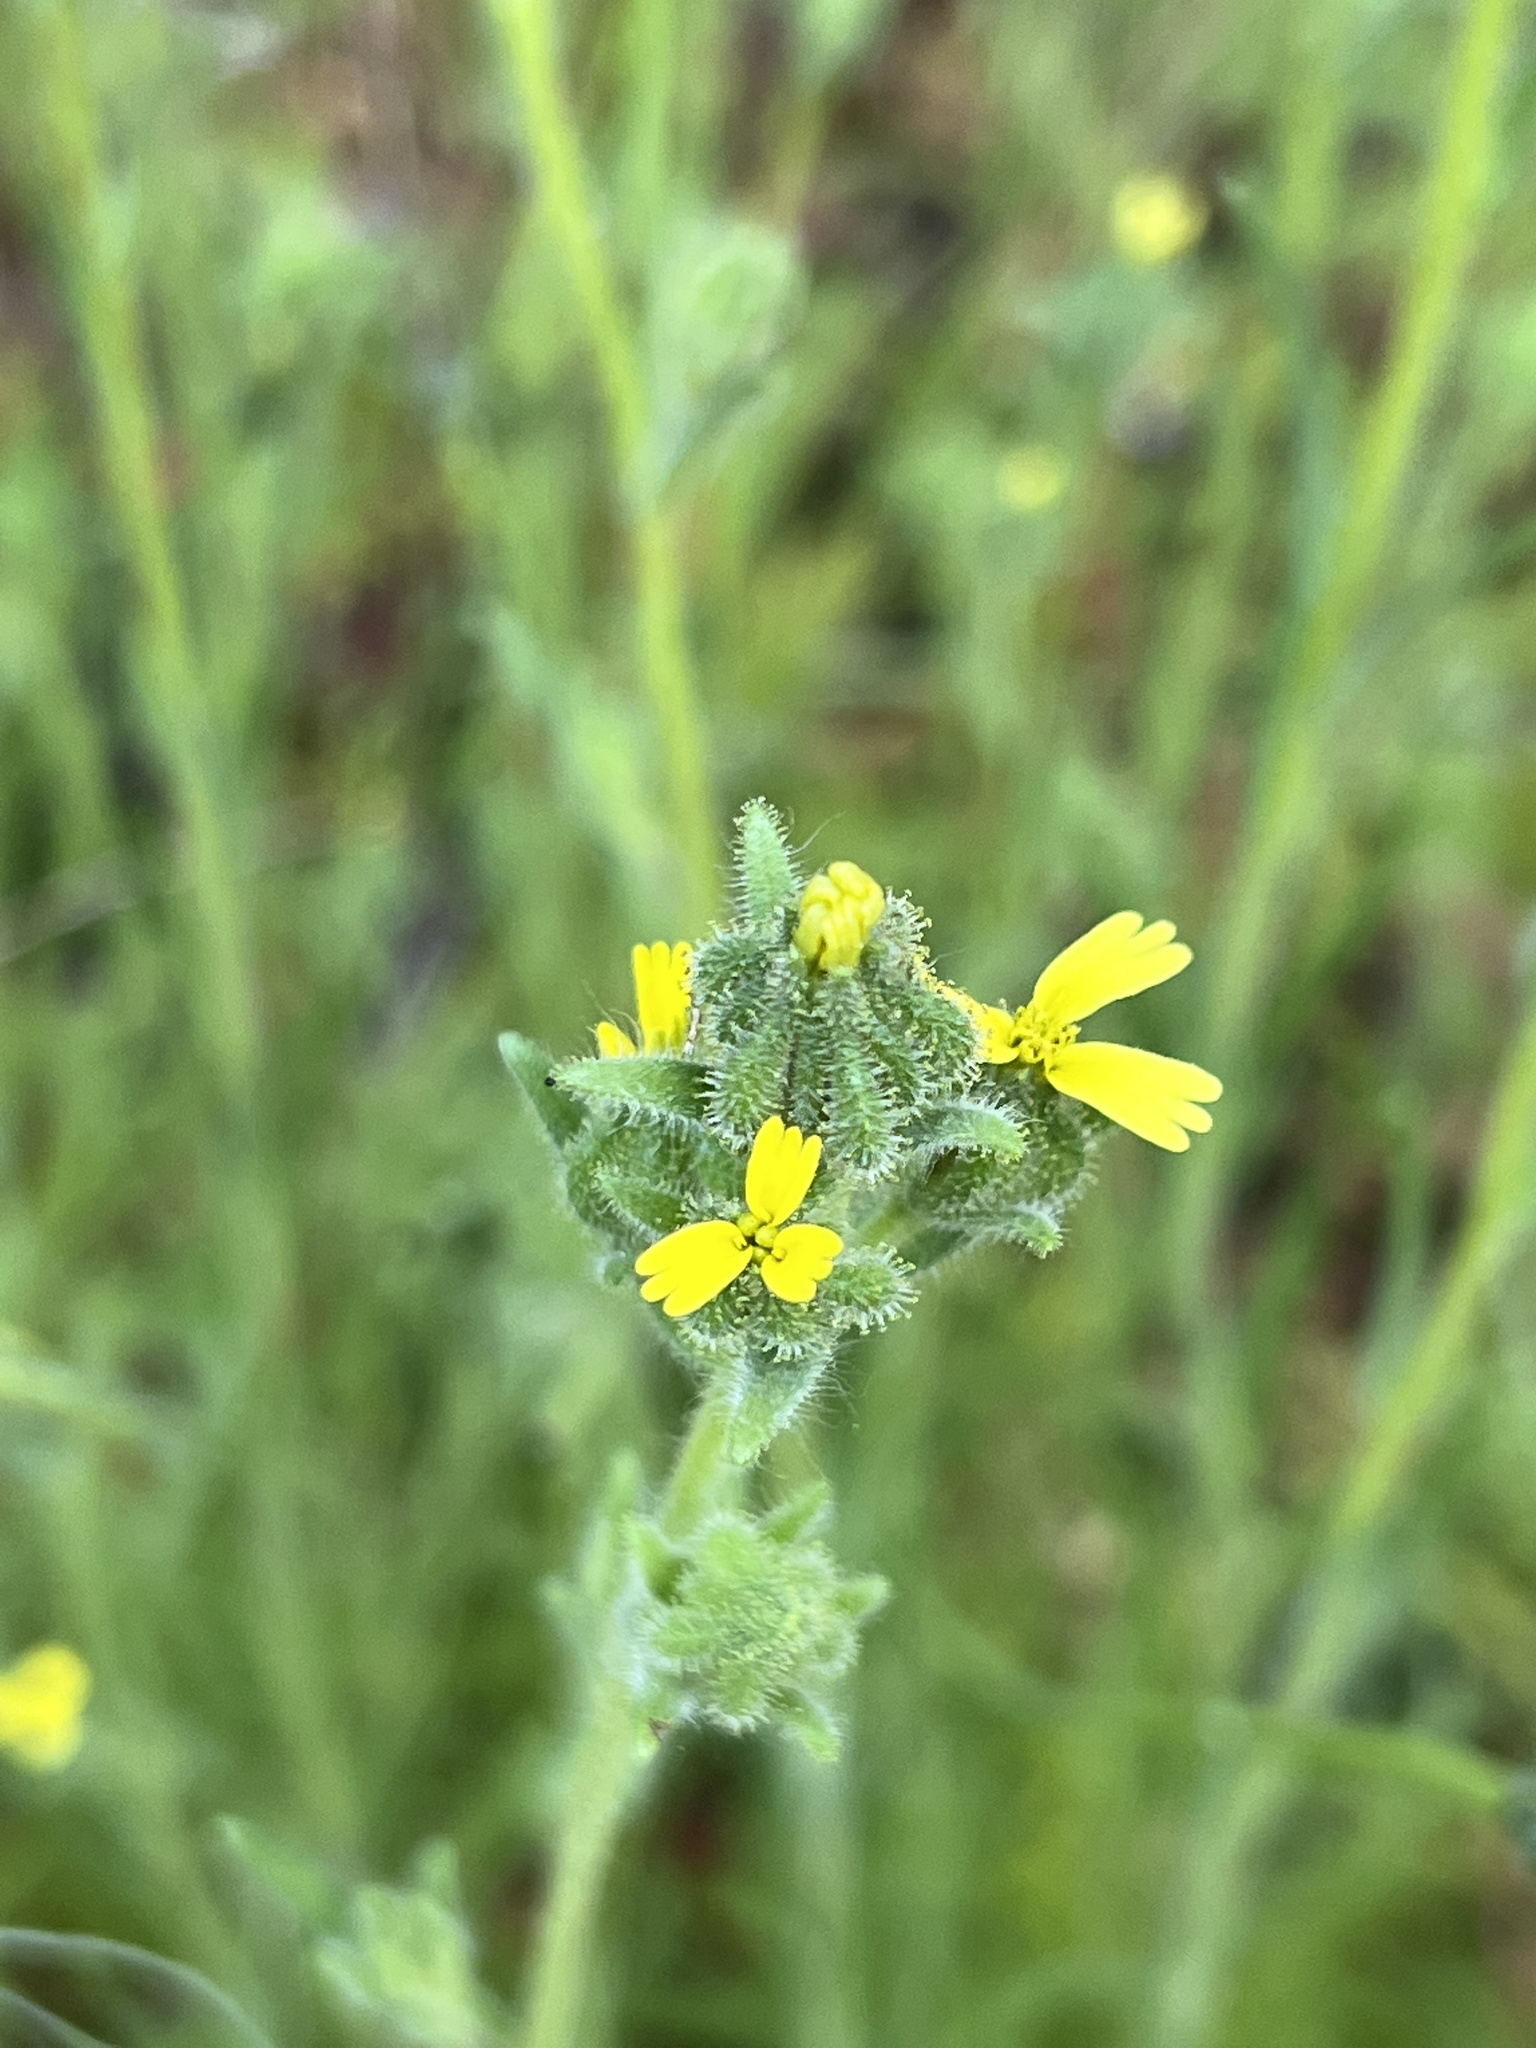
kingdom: Plantae
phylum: Tracheophyta
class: Magnoliopsida
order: Asterales
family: Asteraceae
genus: Madia
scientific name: Madia gracilis
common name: Grassy tarweed
